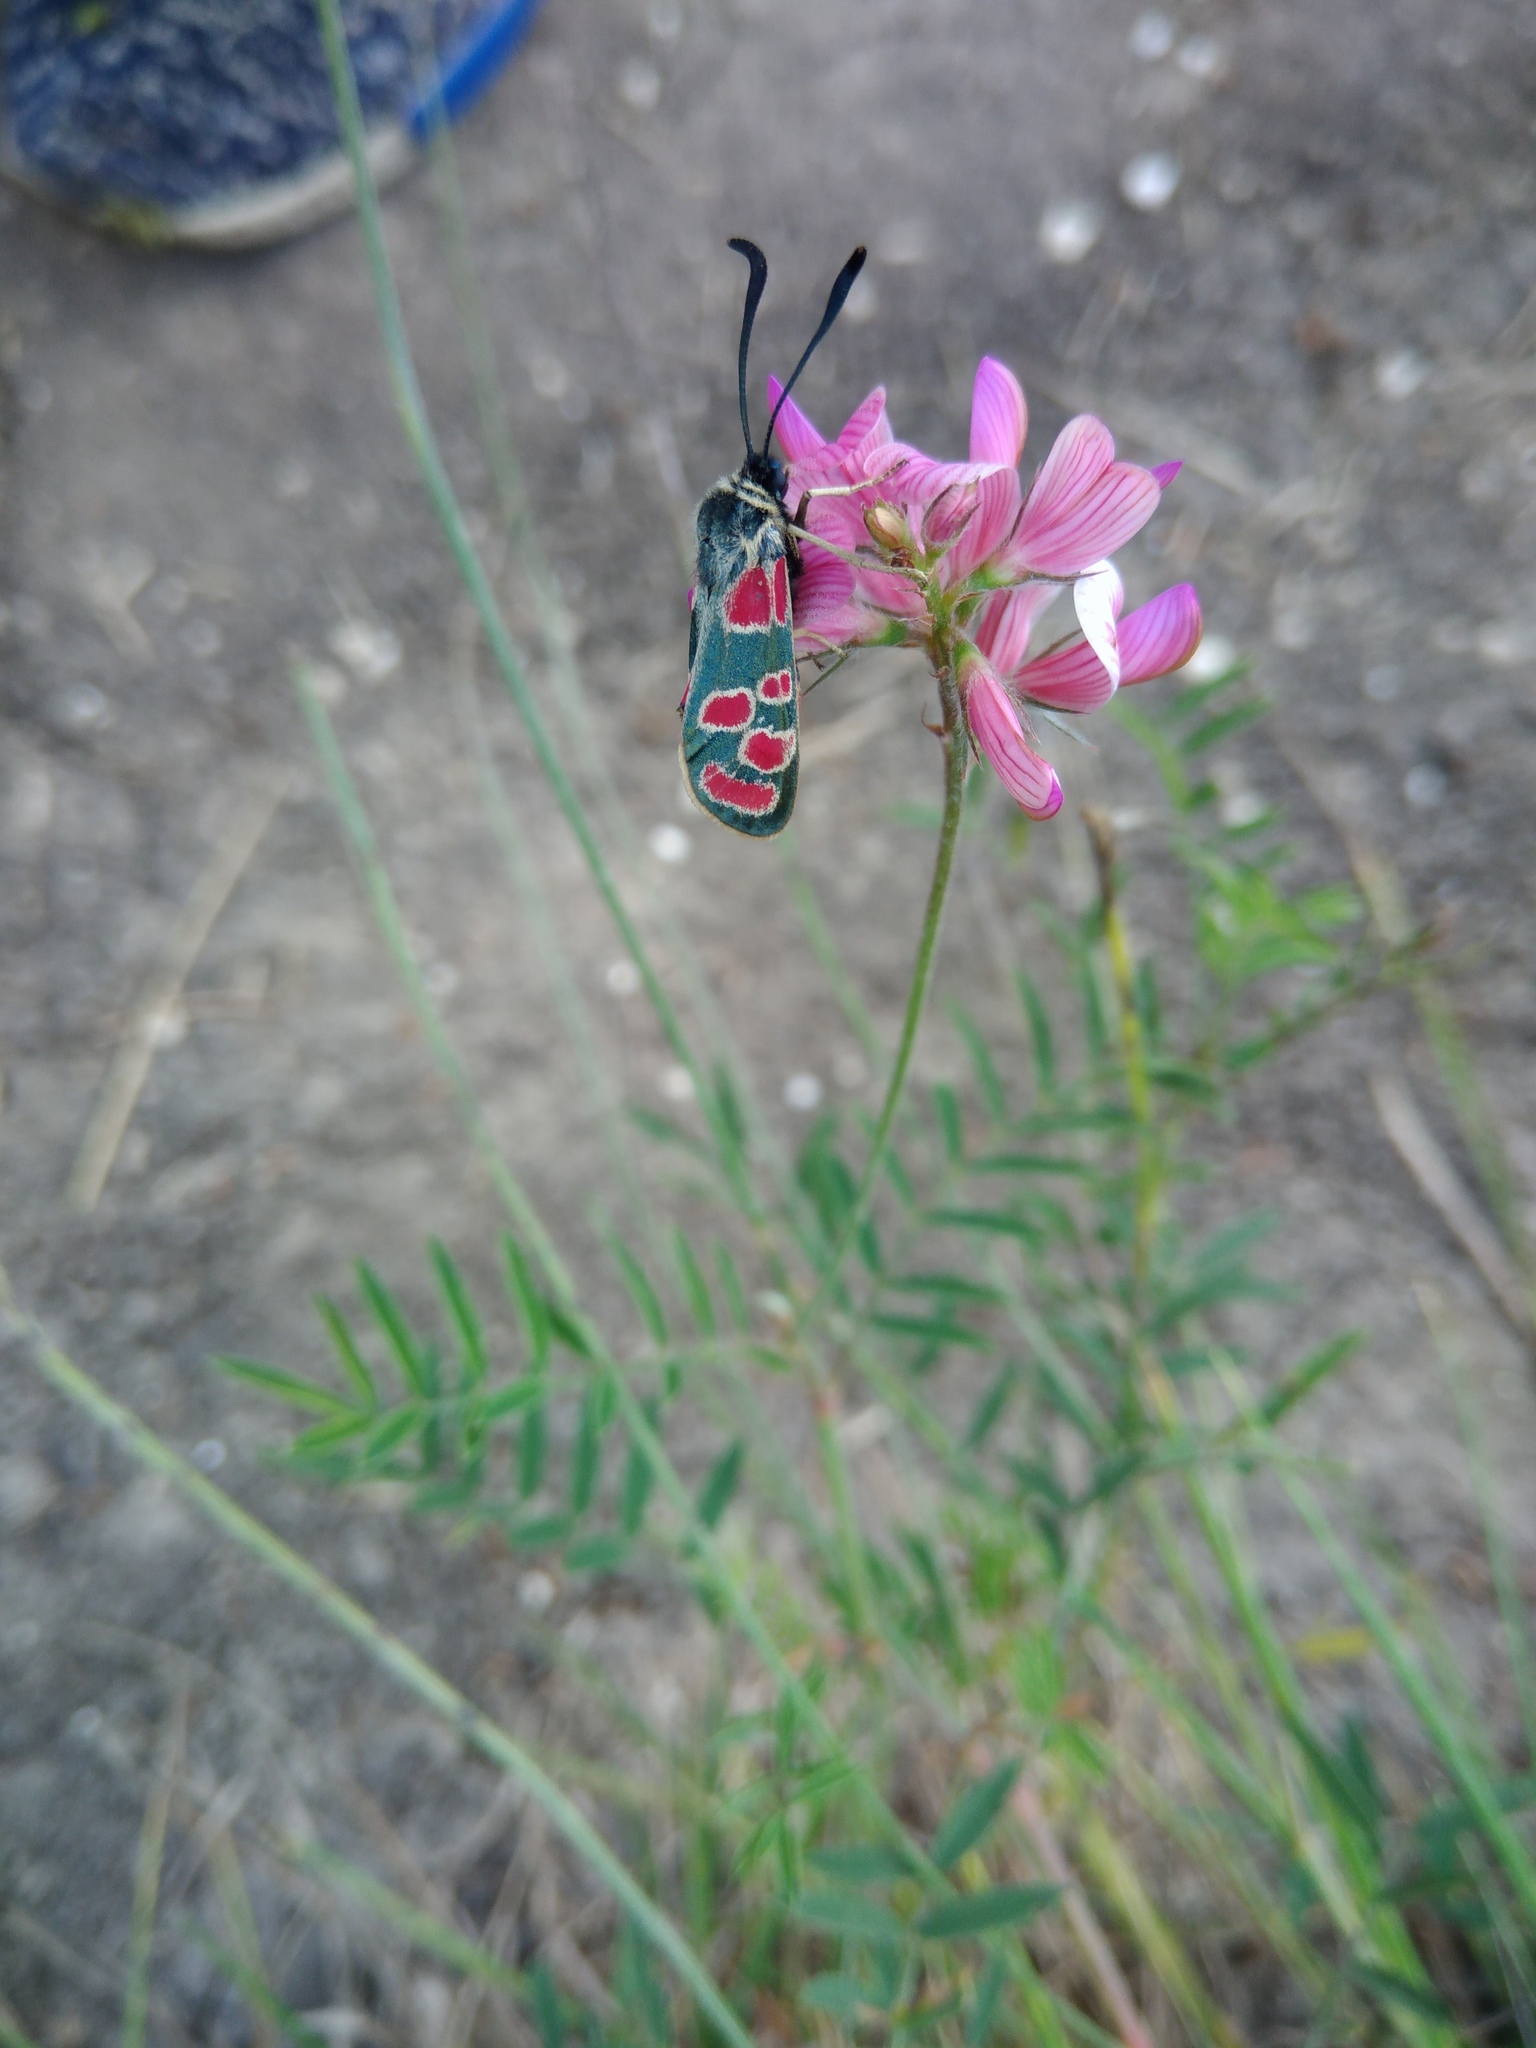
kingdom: Animalia
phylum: Arthropoda
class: Insecta
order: Lepidoptera
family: Zygaenidae
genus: Zygaena
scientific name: Zygaena carniolica
